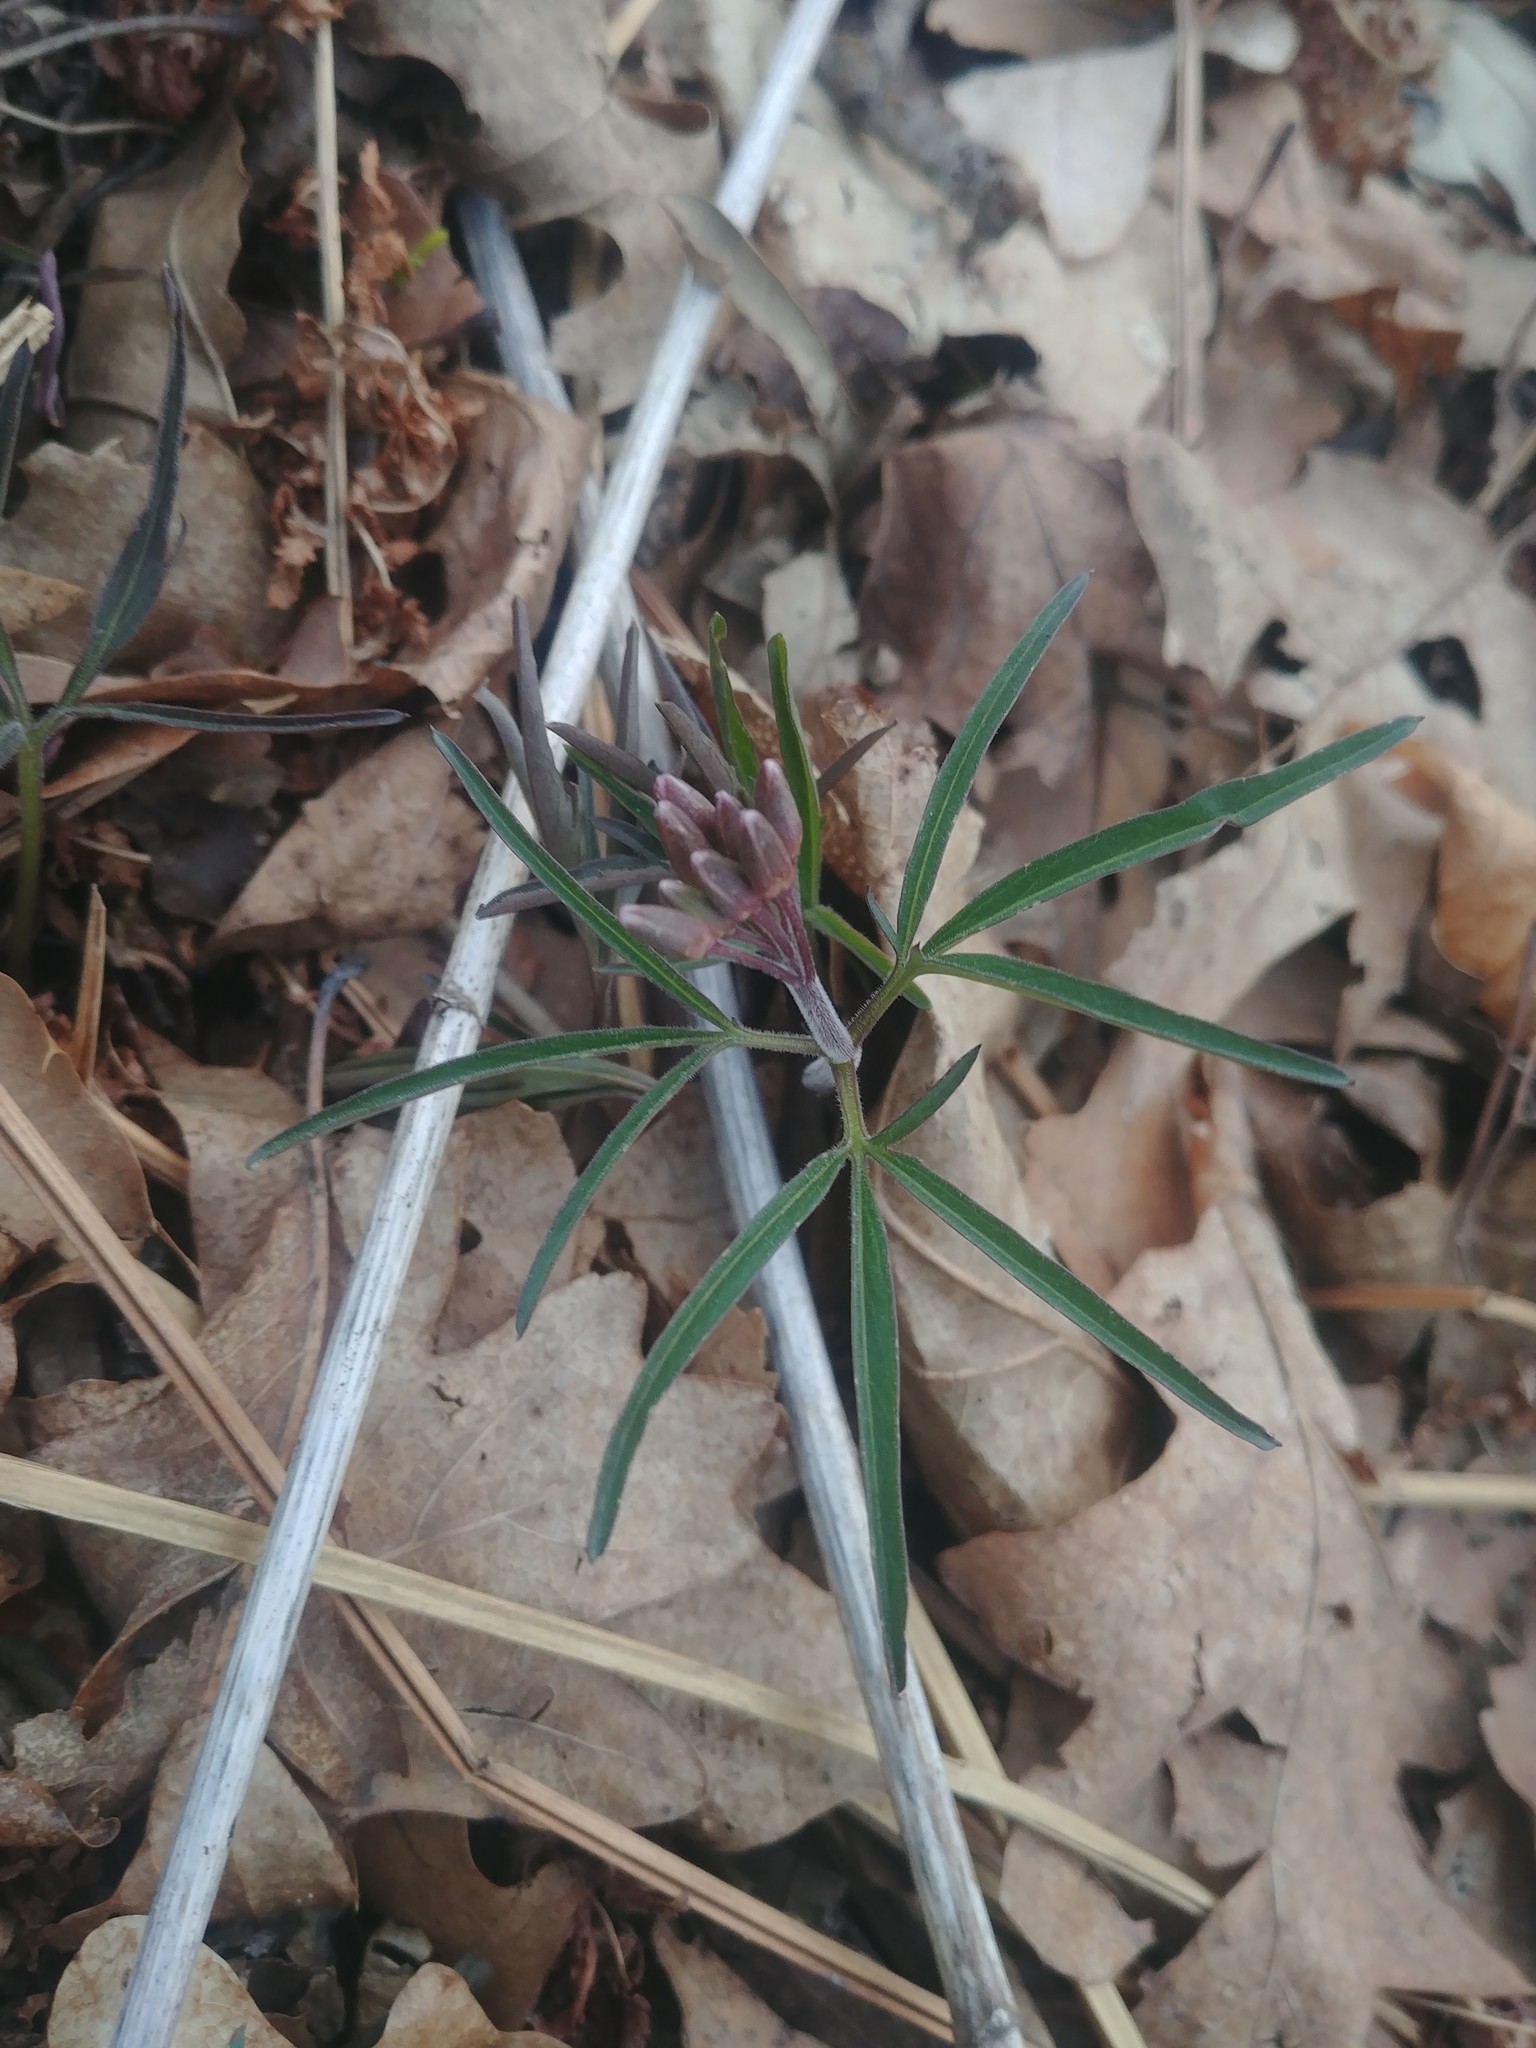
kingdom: Plantae
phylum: Tracheophyta
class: Magnoliopsida
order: Brassicales
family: Brassicaceae
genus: Cardamine
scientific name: Cardamine concatenata
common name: Cut-leaf toothcup
